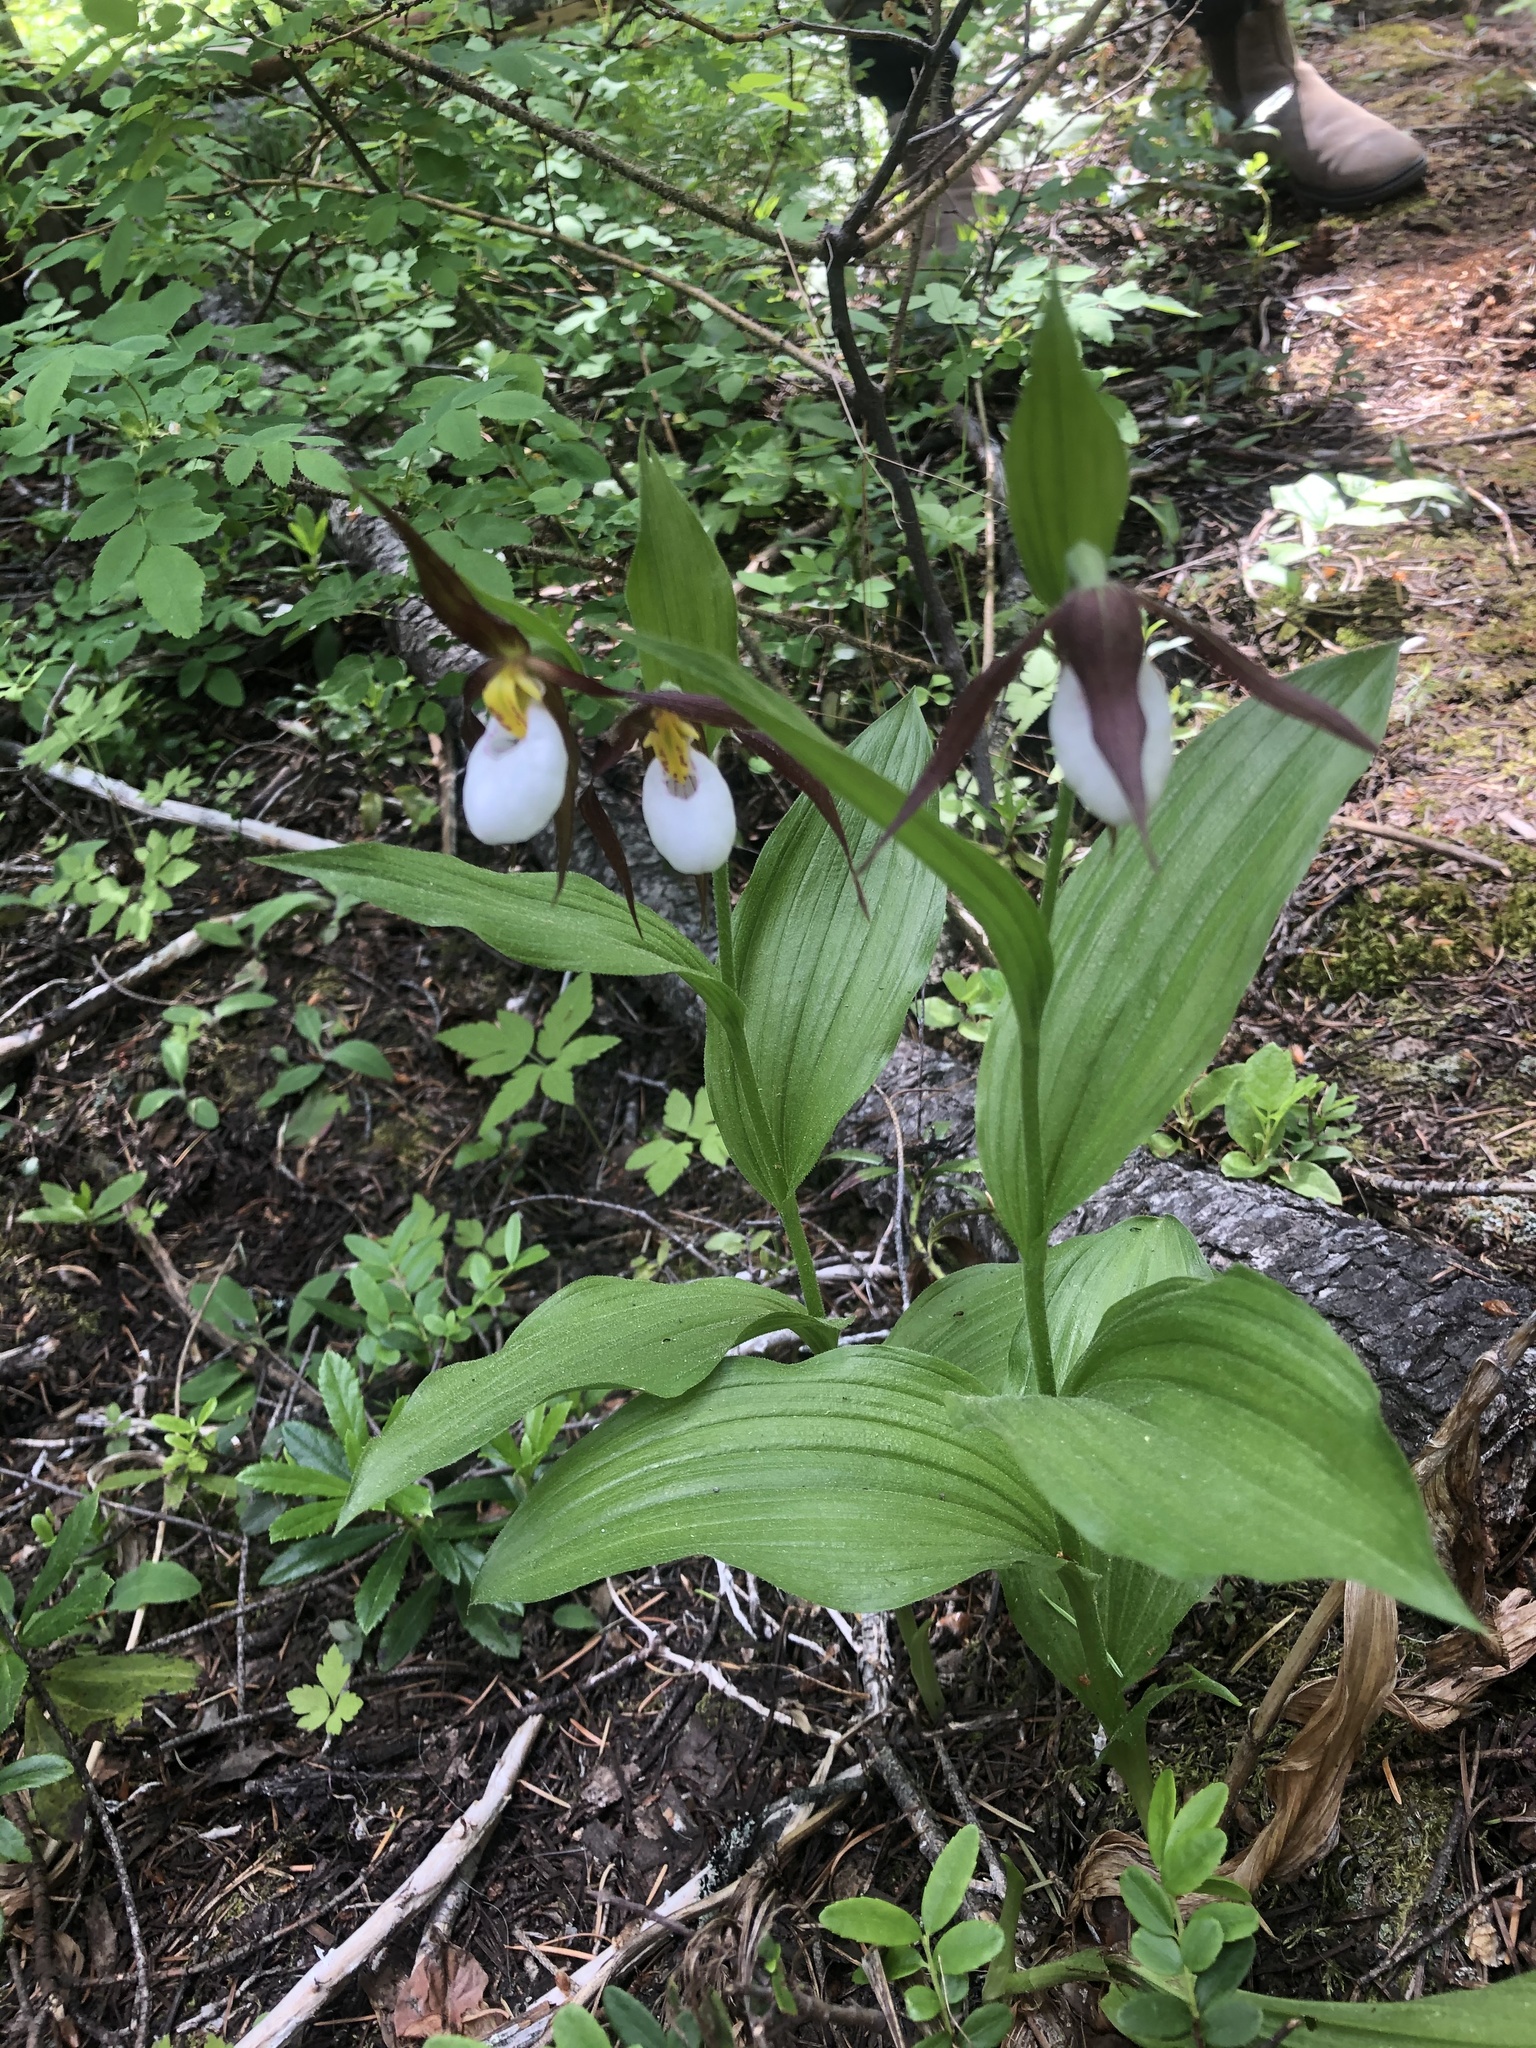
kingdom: Plantae
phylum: Tracheophyta
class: Liliopsida
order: Asparagales
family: Orchidaceae
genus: Cypripedium
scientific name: Cypripedium montanum
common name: Mountain lady's-slipper
